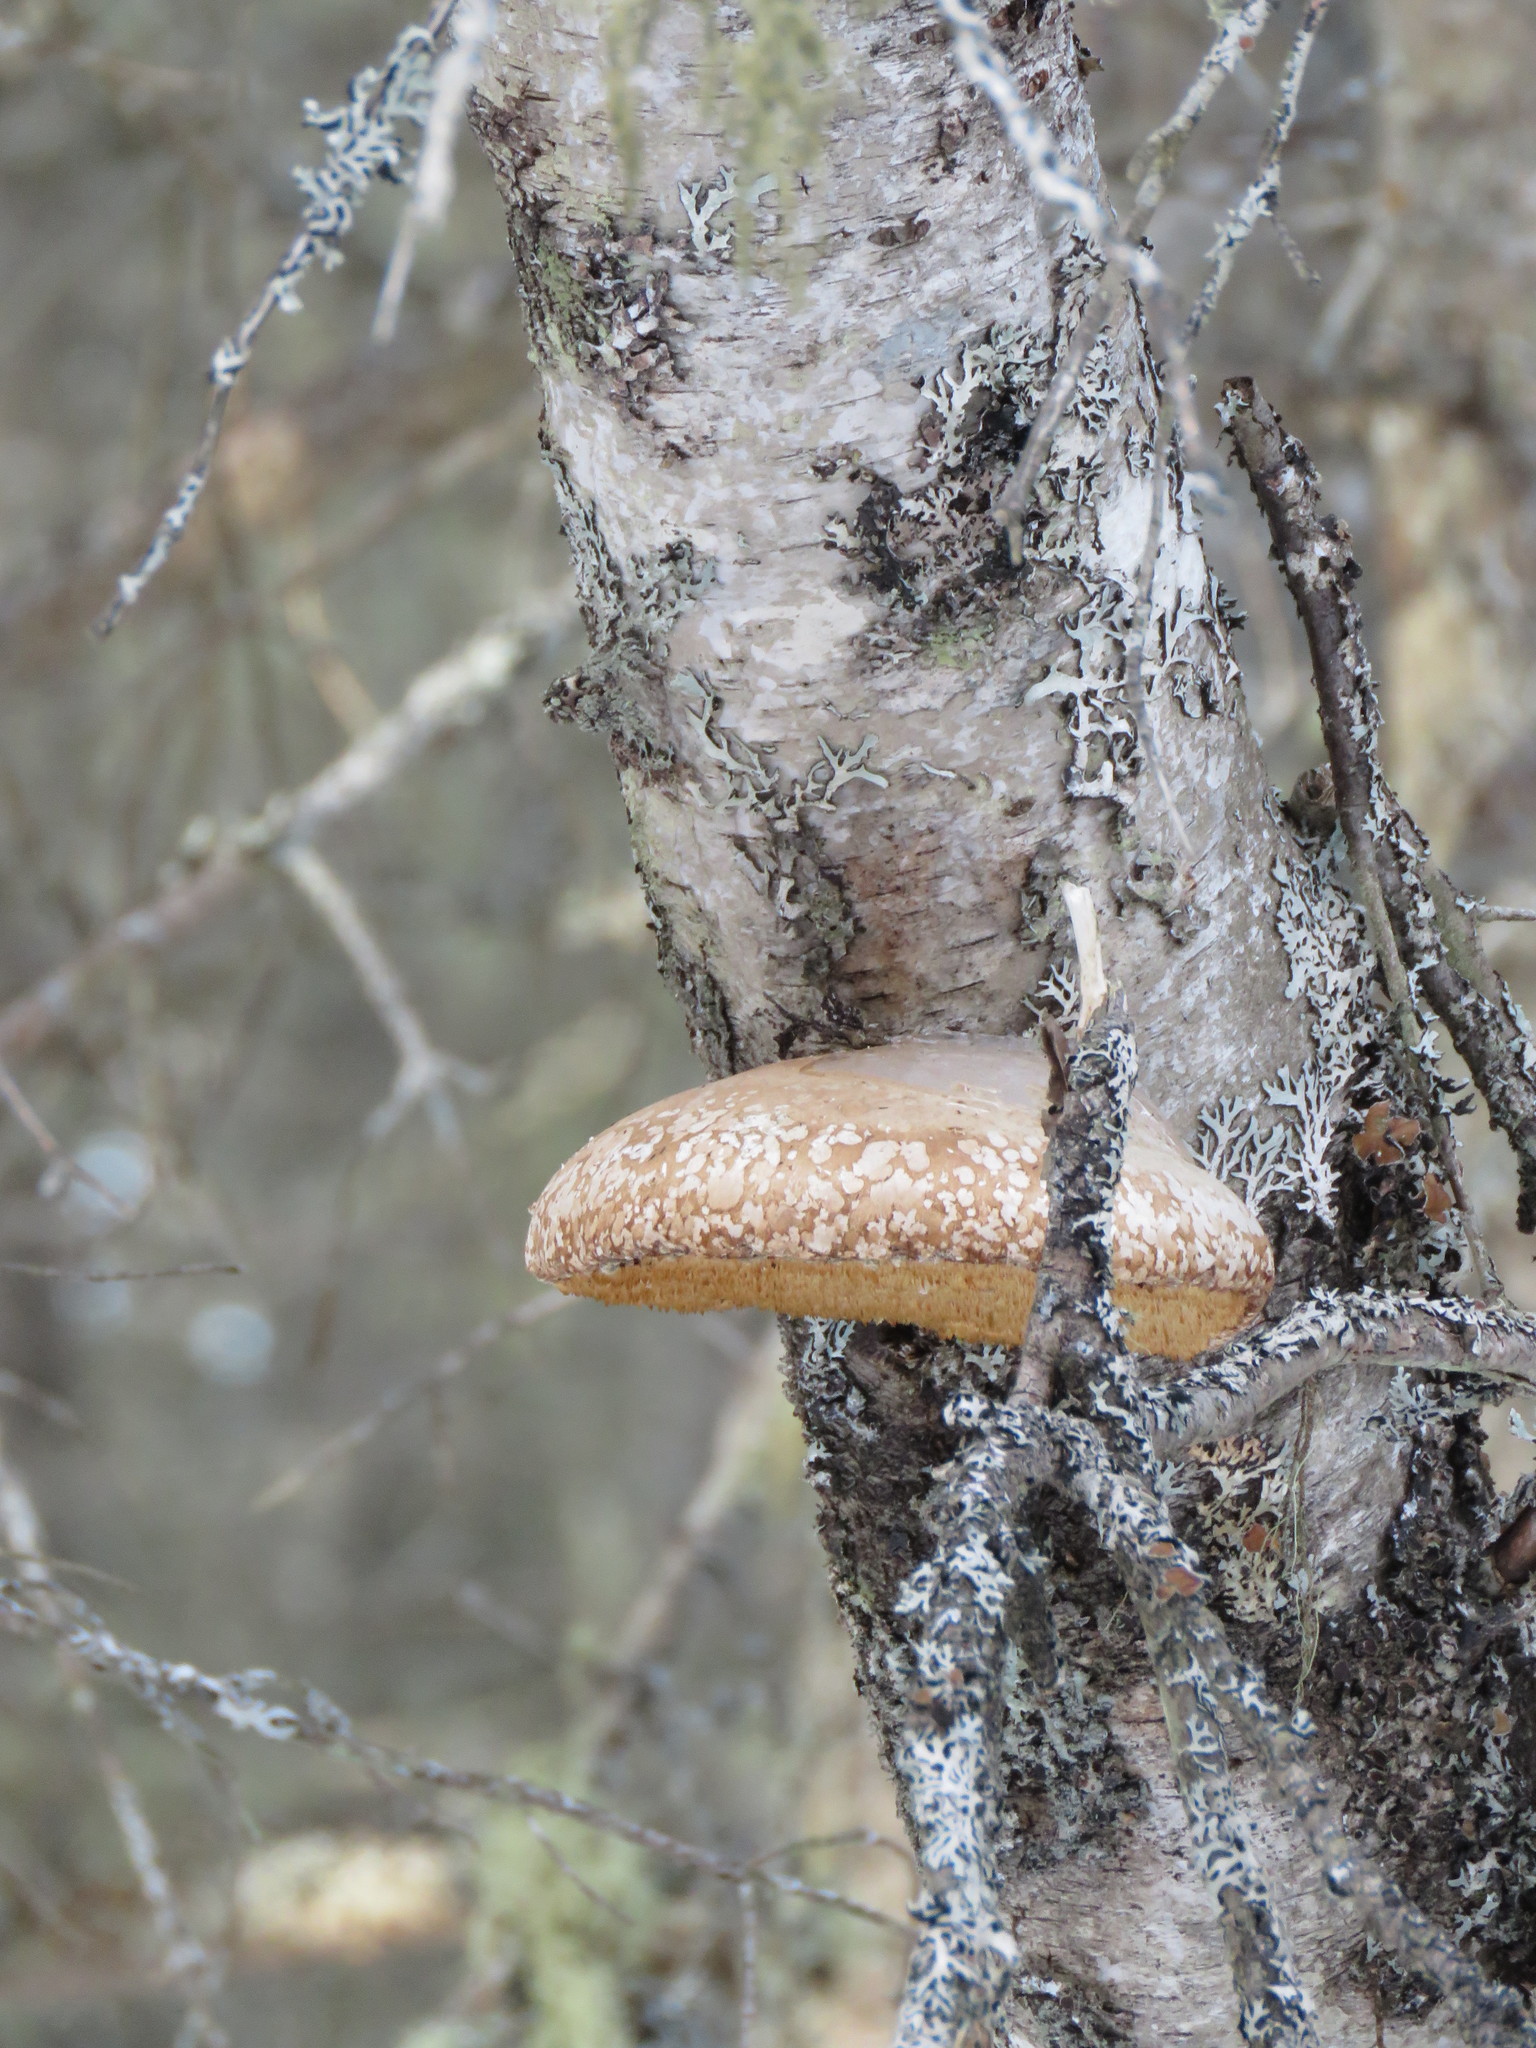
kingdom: Fungi
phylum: Basidiomycota
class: Agaricomycetes
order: Polyporales
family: Fomitopsidaceae
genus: Fomitopsis
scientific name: Fomitopsis betulina
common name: Birch polypore
